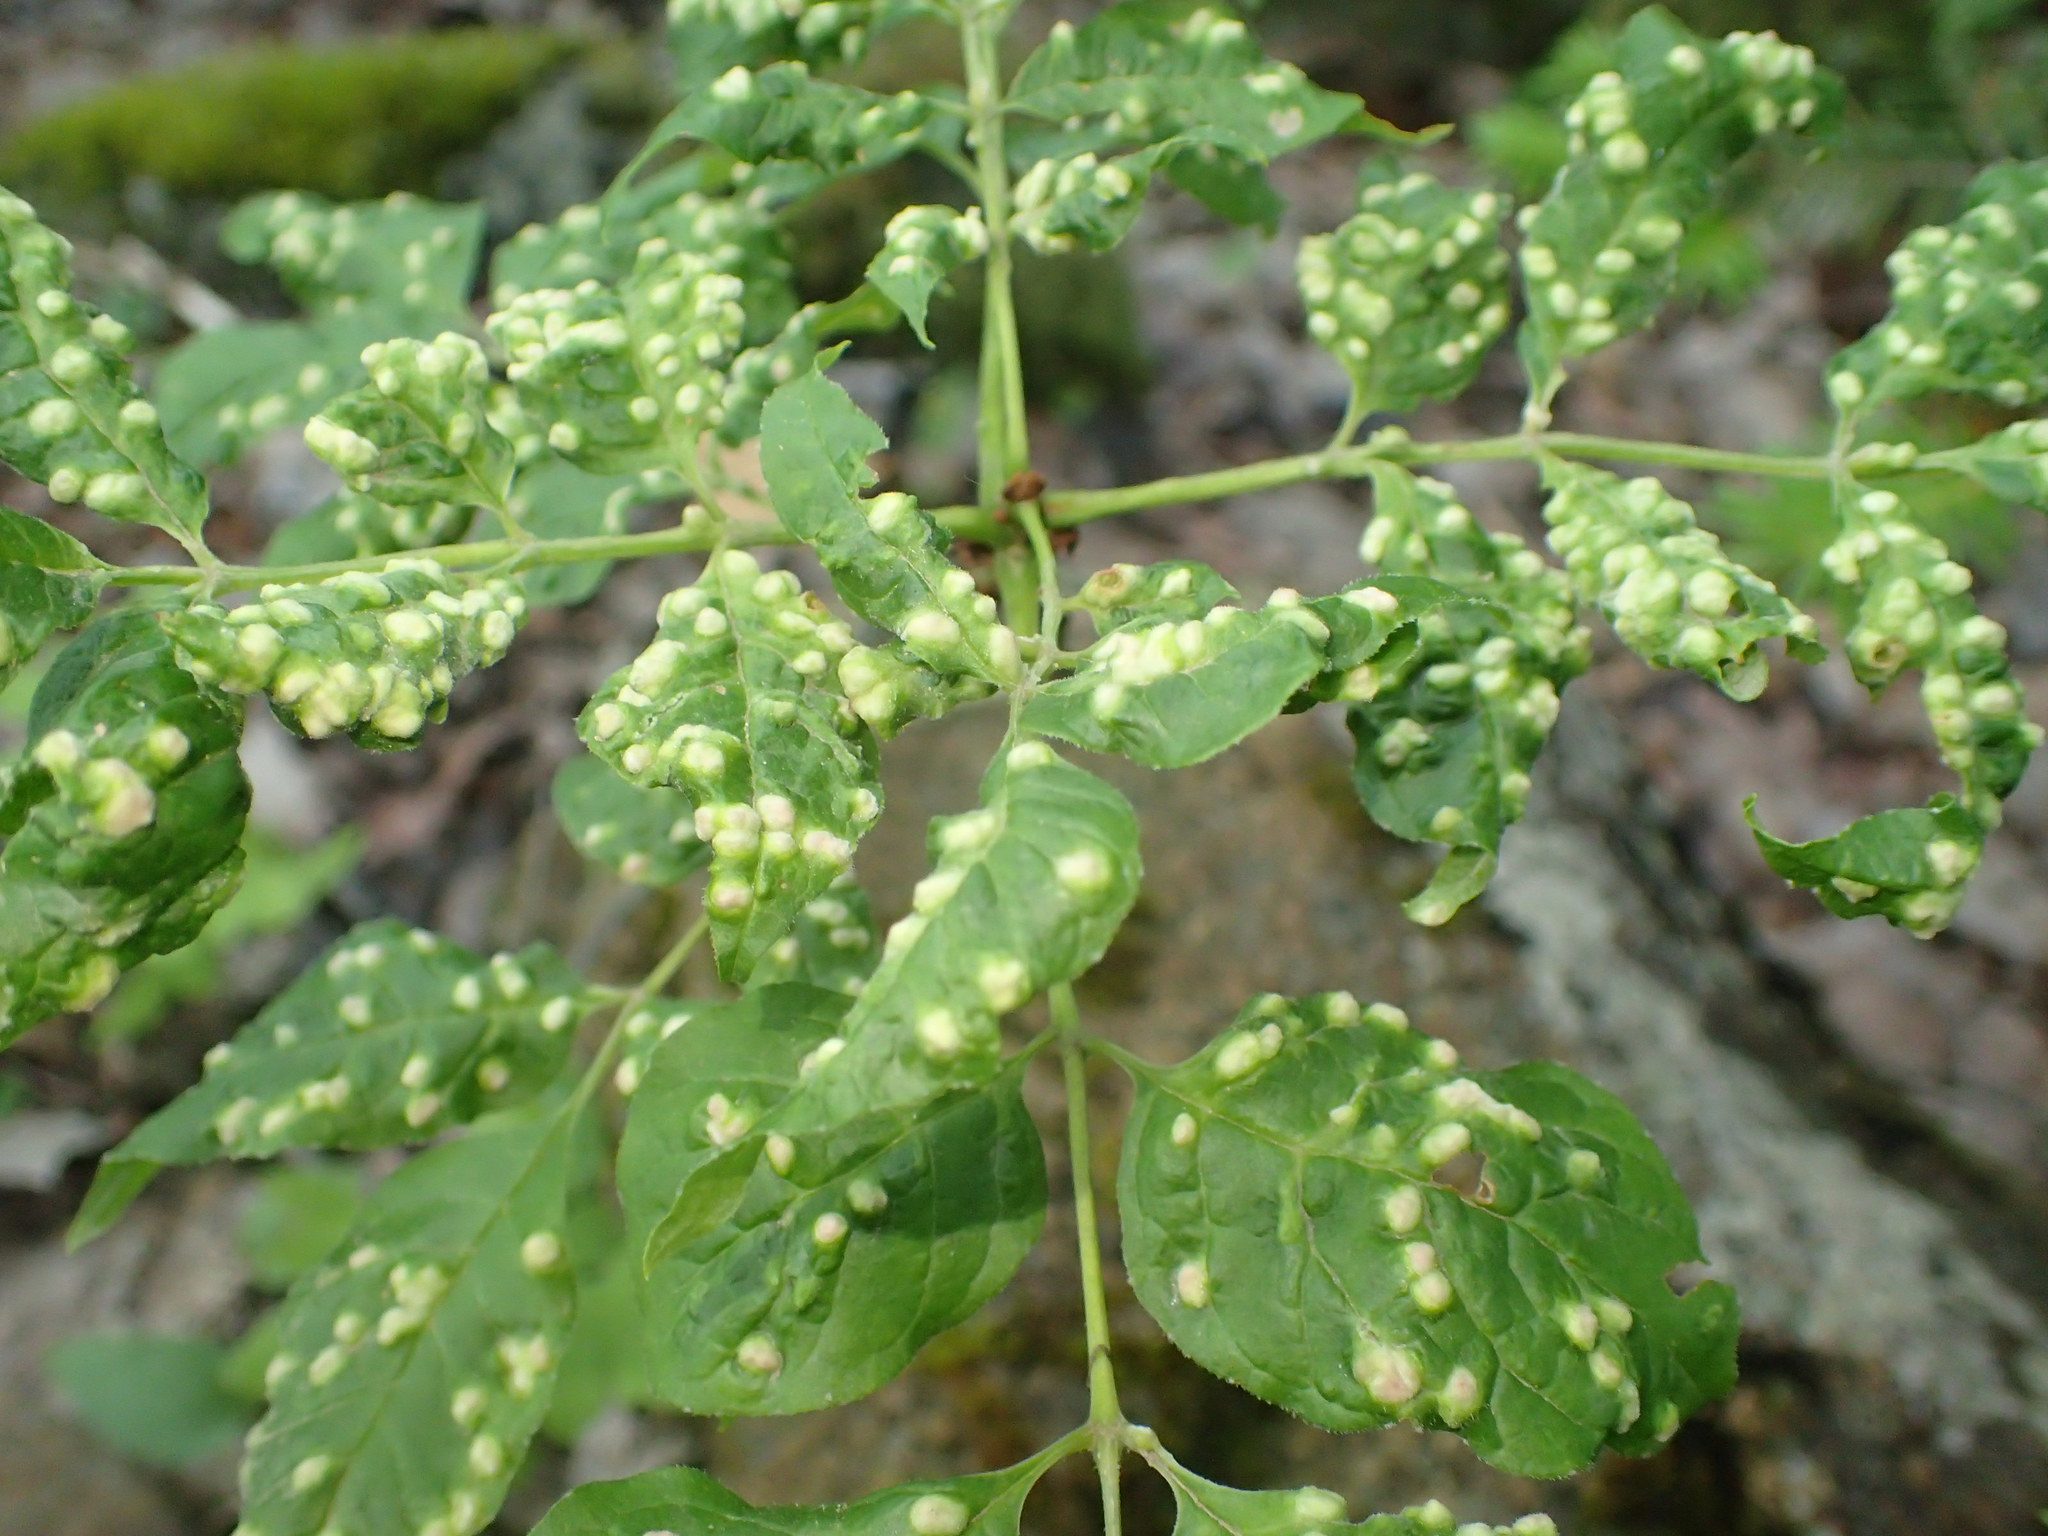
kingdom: Animalia
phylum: Arthropoda
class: Arachnida
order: Trombidiformes
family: Eriophyidae
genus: Aceria
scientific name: Aceria fraxinicola
